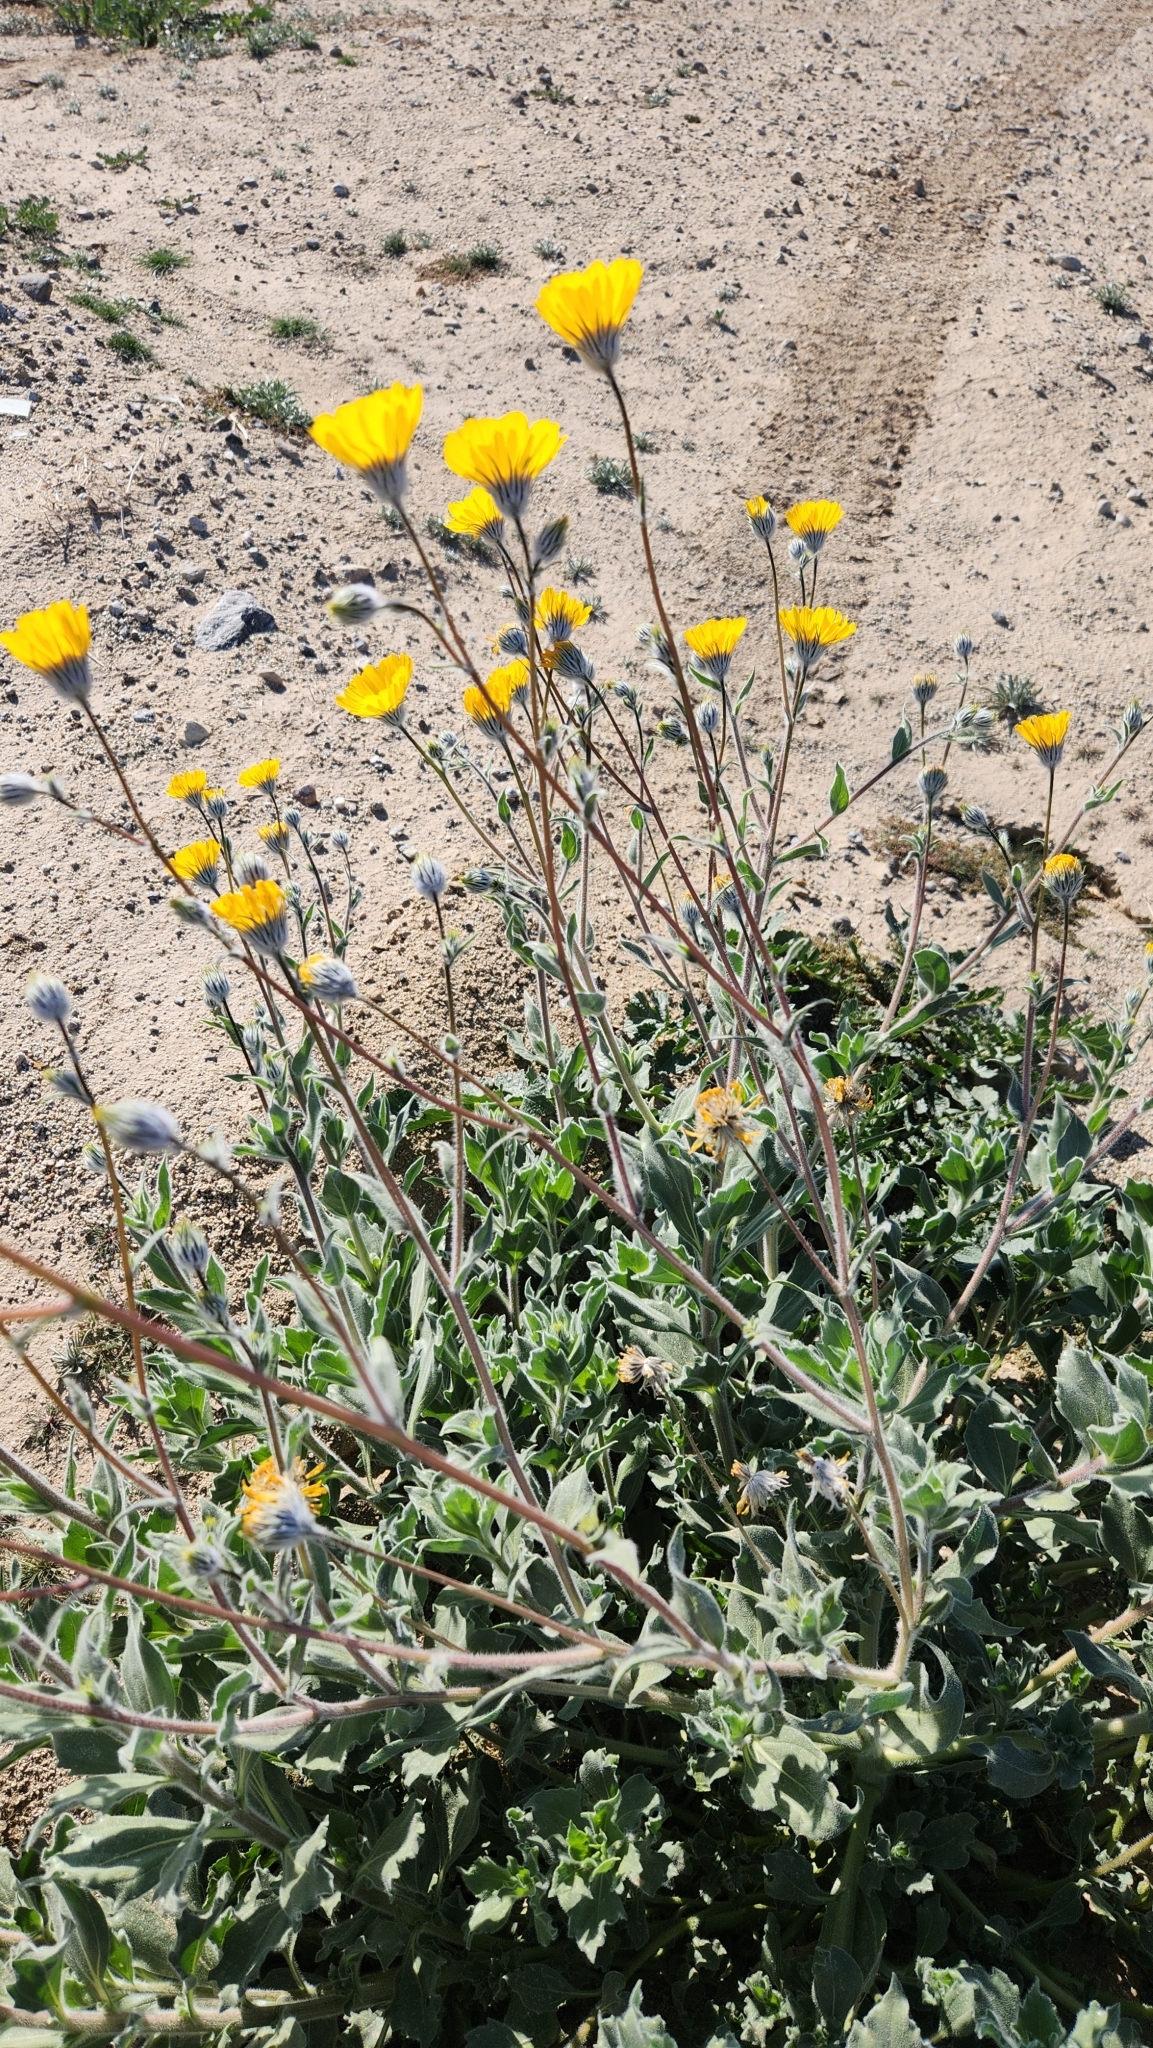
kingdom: Plantae
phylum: Tracheophyta
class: Magnoliopsida
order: Asterales
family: Asteraceae
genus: Geraea
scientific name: Geraea canescens
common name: Desert-gold
